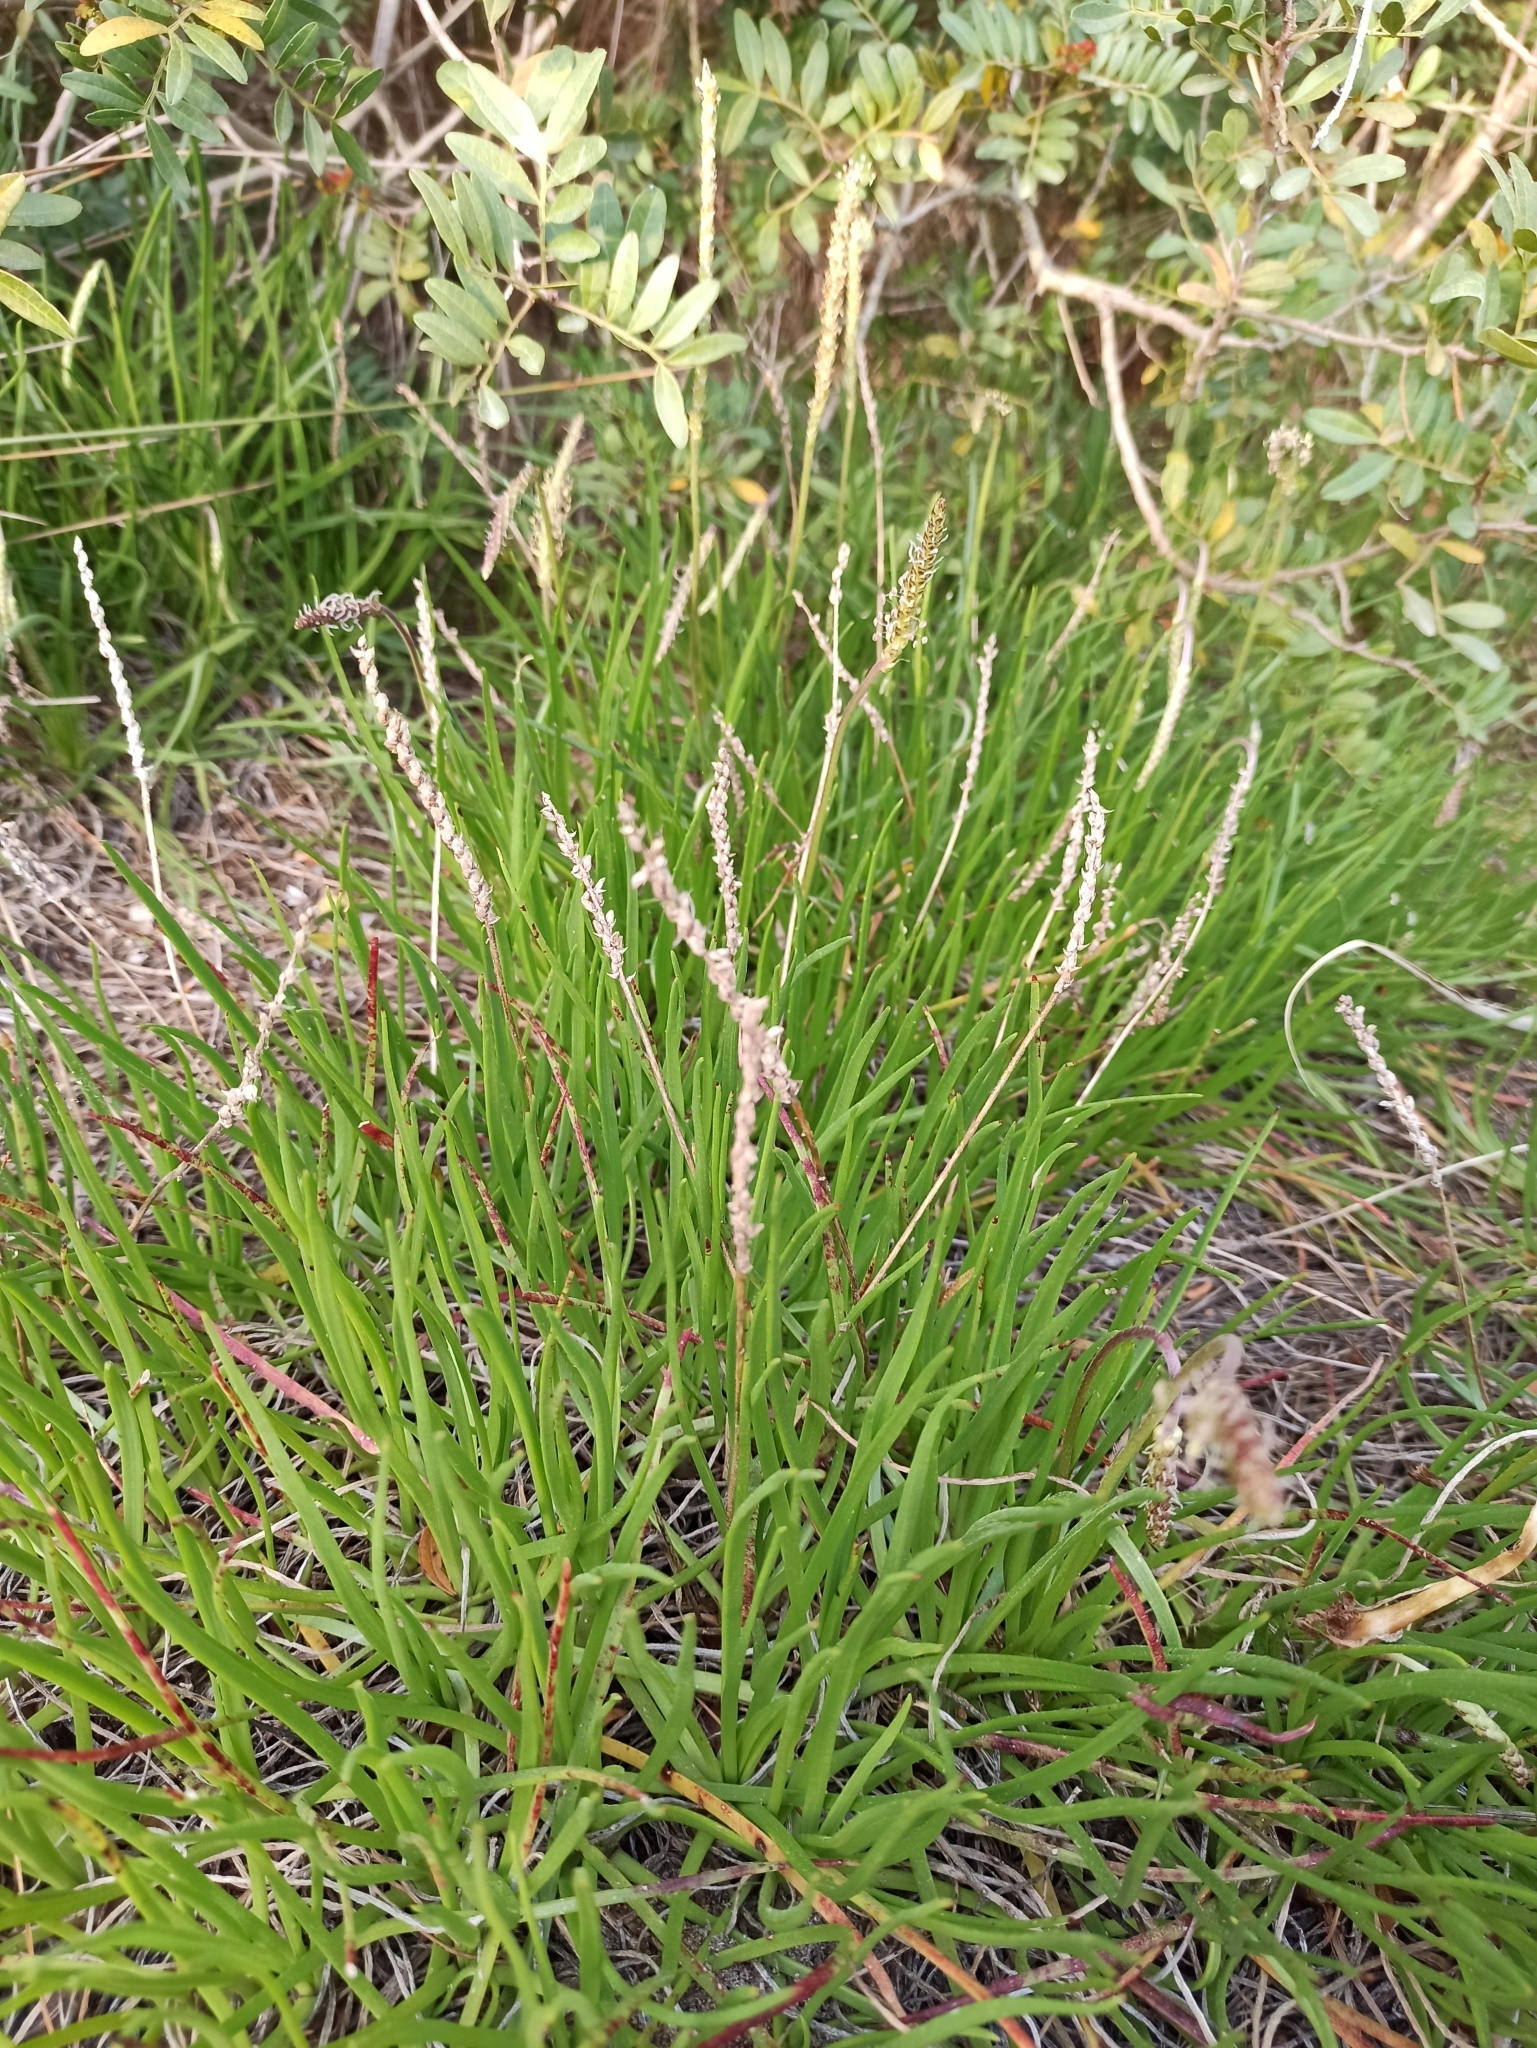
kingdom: Plantae
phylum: Tracheophyta
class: Magnoliopsida
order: Lamiales
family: Plantaginaceae
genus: Plantago
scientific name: Plantago crassifolia
